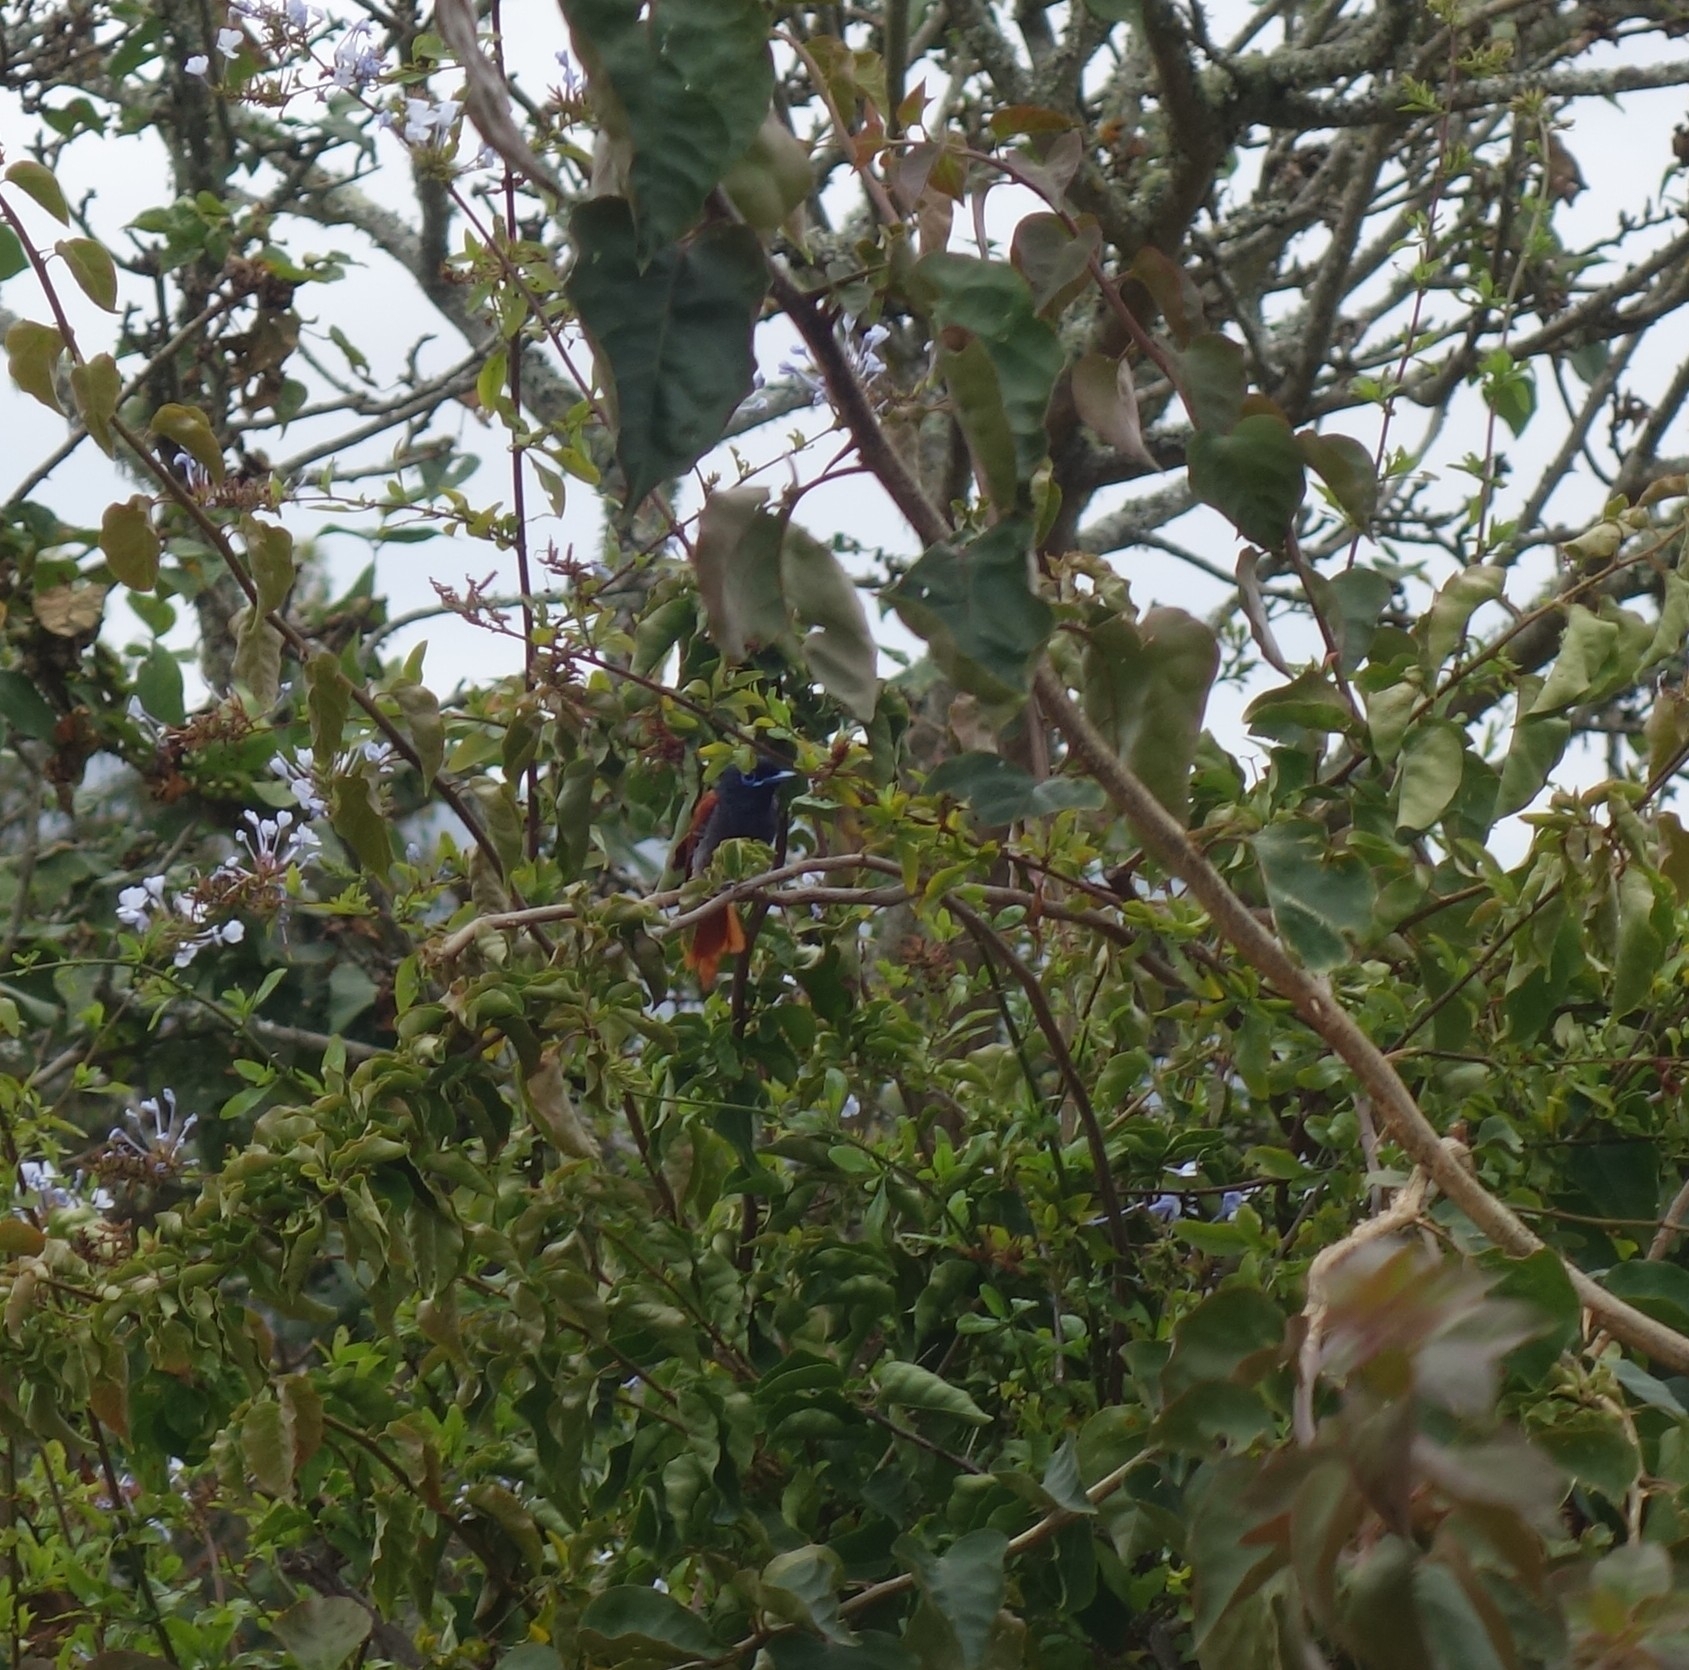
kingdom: Animalia
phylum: Chordata
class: Aves
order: Passeriformes
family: Monarchidae
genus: Terpsiphone
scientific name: Terpsiphone viridis
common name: African paradise flycatcher
